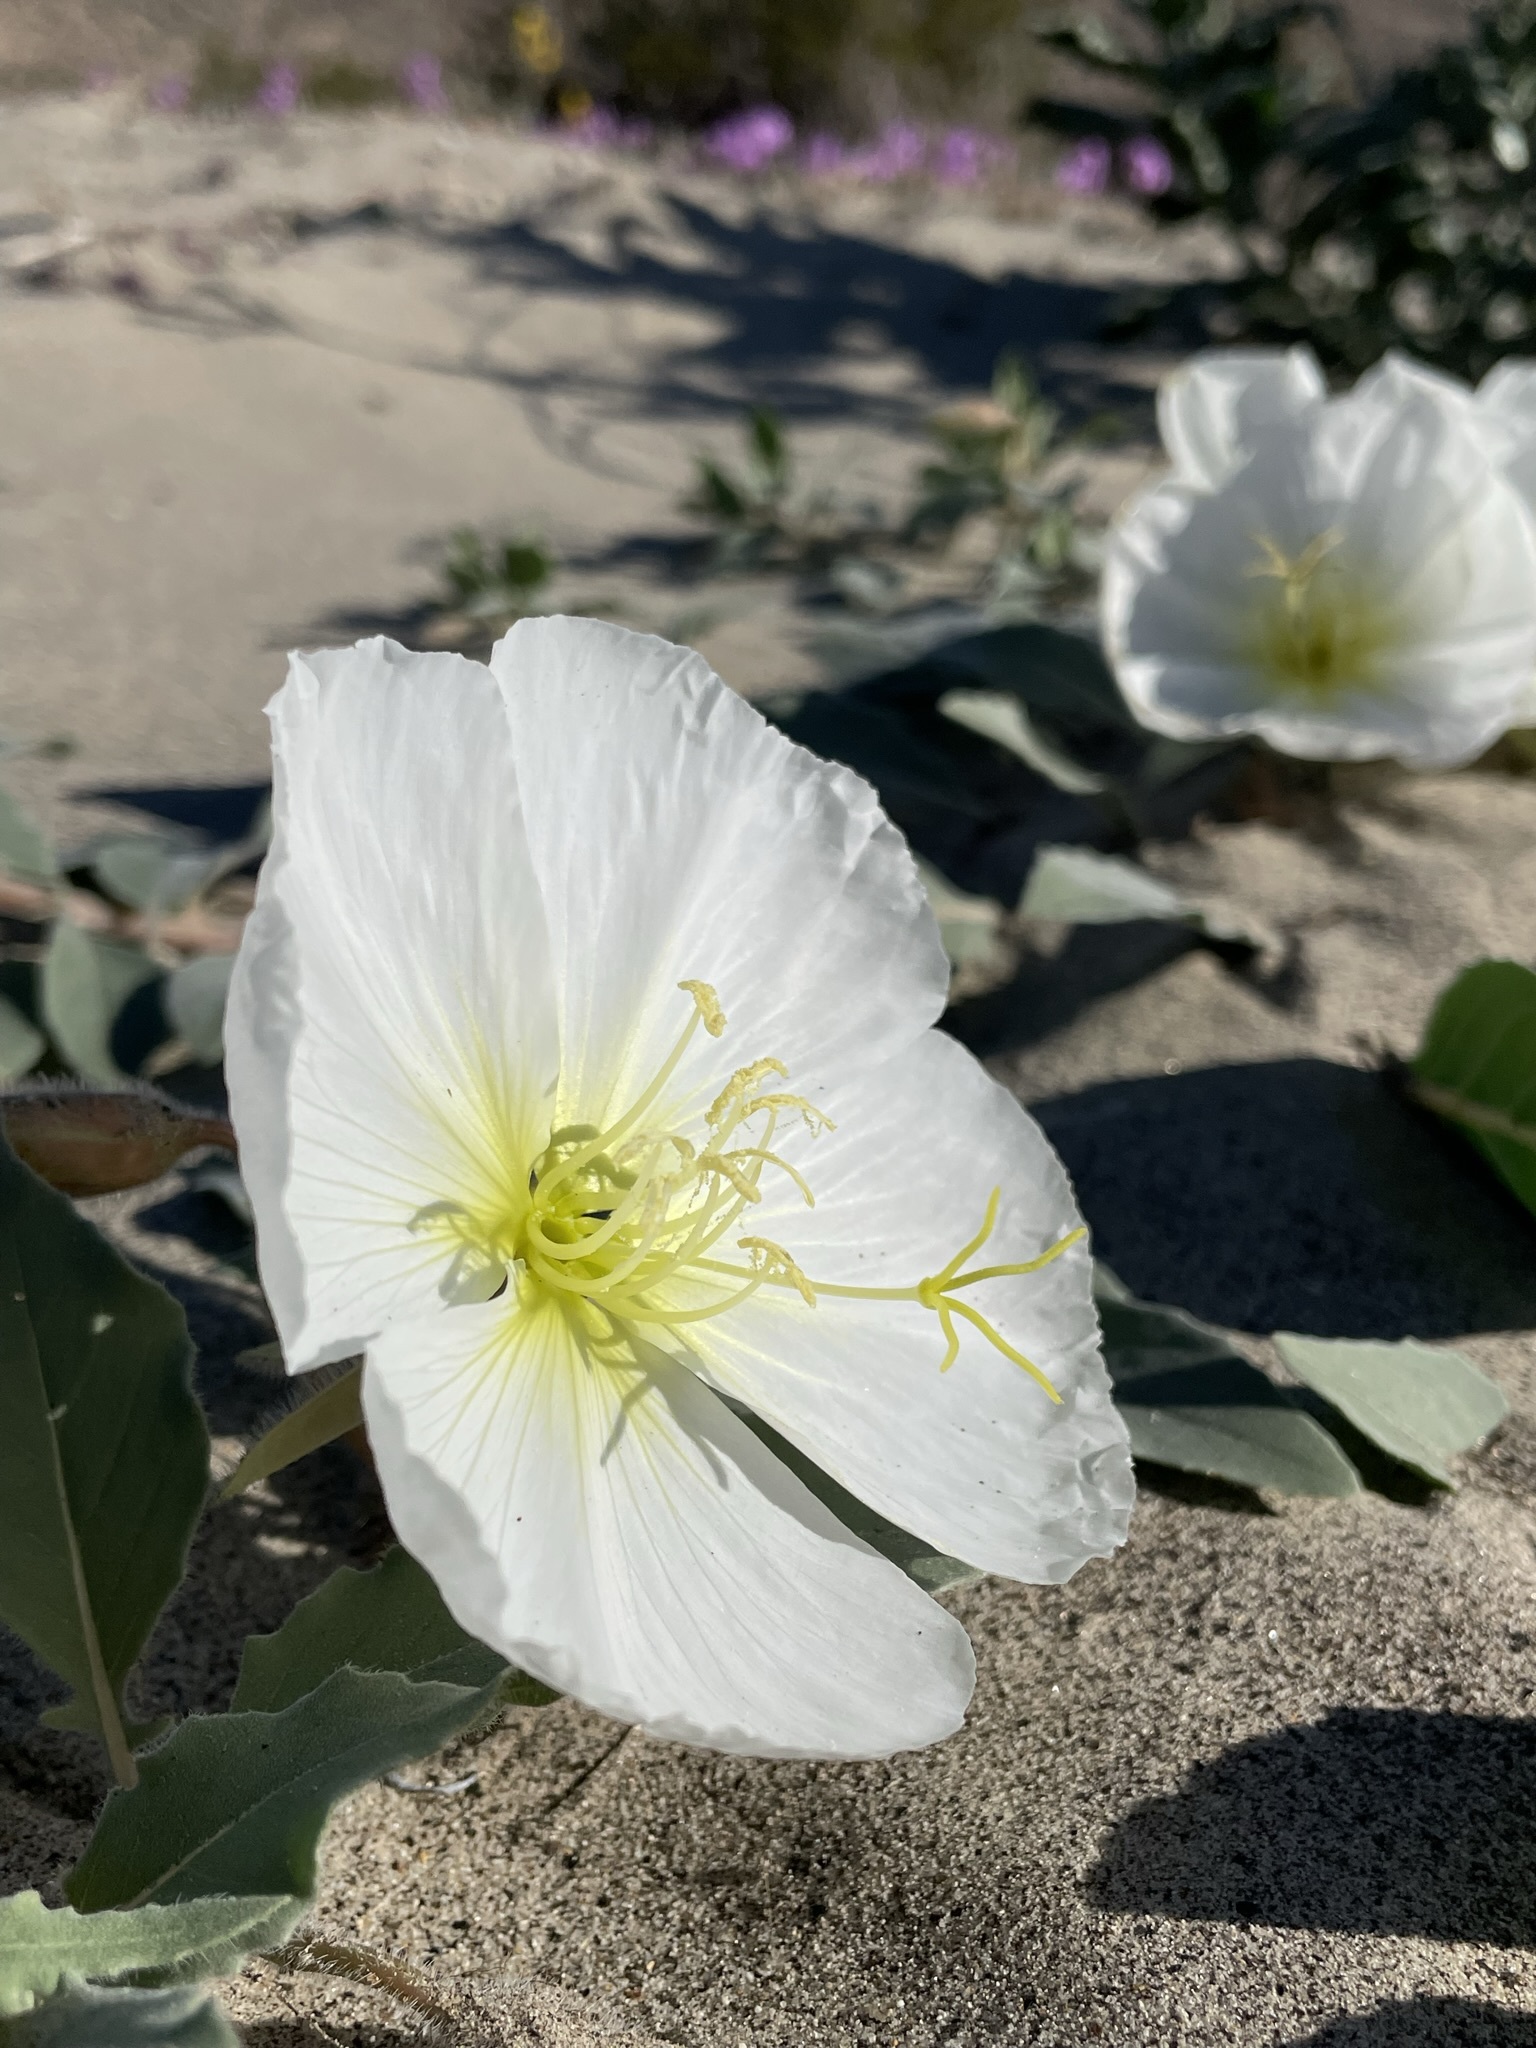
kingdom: Plantae
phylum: Tracheophyta
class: Magnoliopsida
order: Myrtales
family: Onagraceae
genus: Oenothera
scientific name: Oenothera deltoides
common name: Basket evening-primrose
